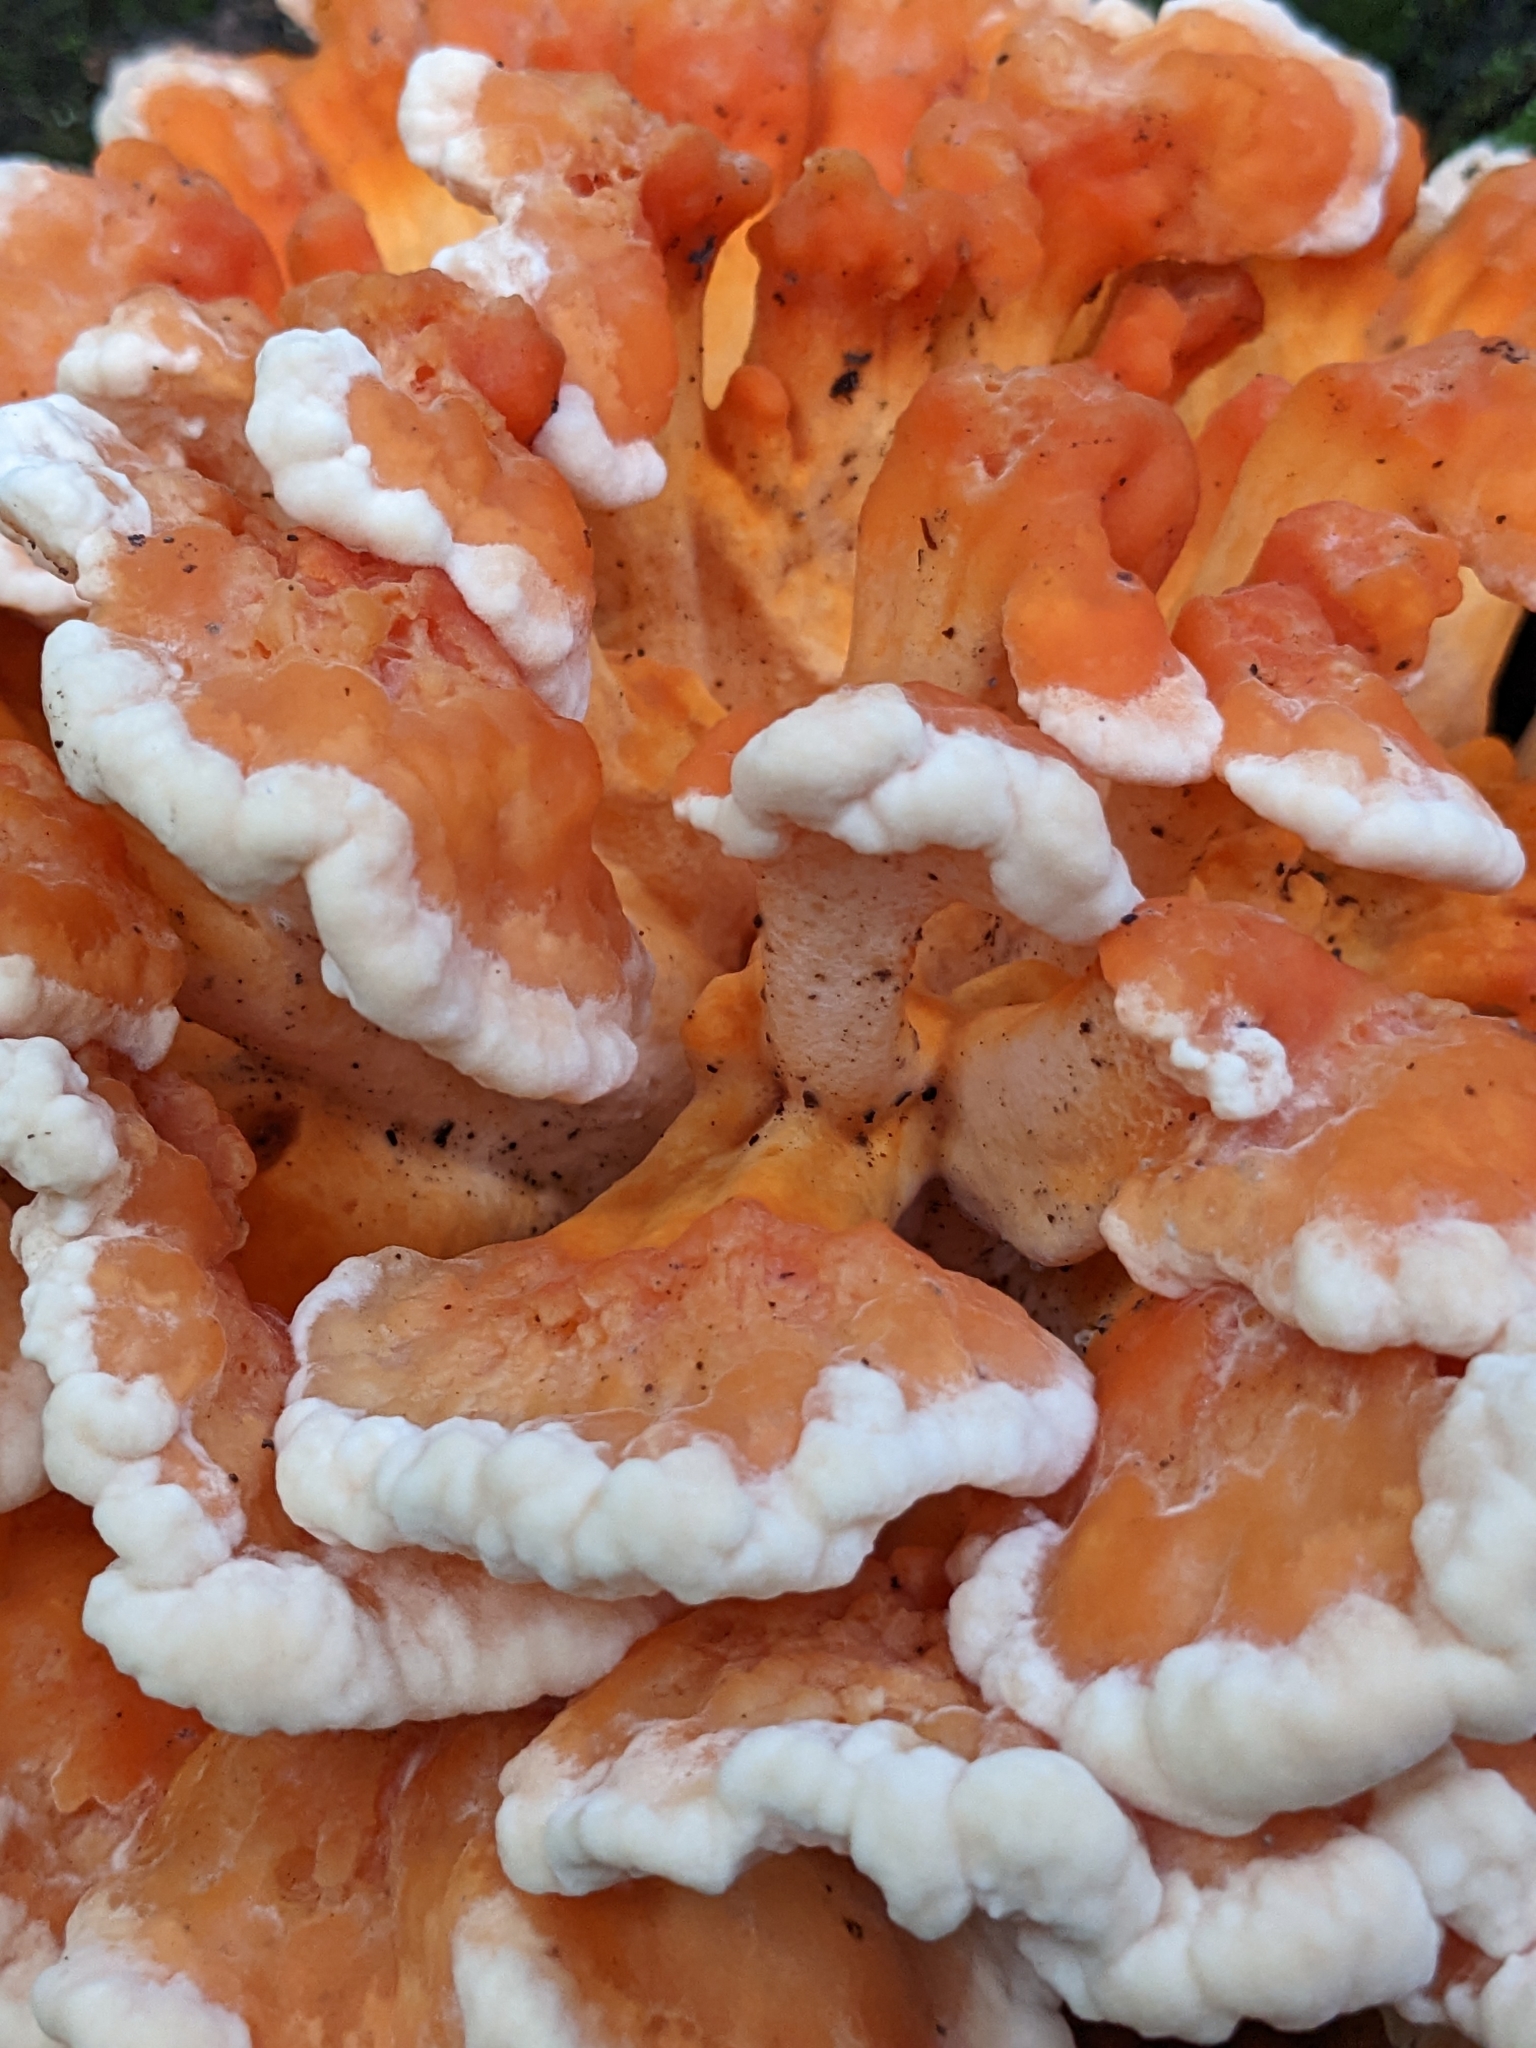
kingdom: Fungi
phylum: Basidiomycota
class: Agaricomycetes
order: Polyporales
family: Laetiporaceae
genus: Laetiporus
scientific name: Laetiporus sulphureus
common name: Chicken of the woods
